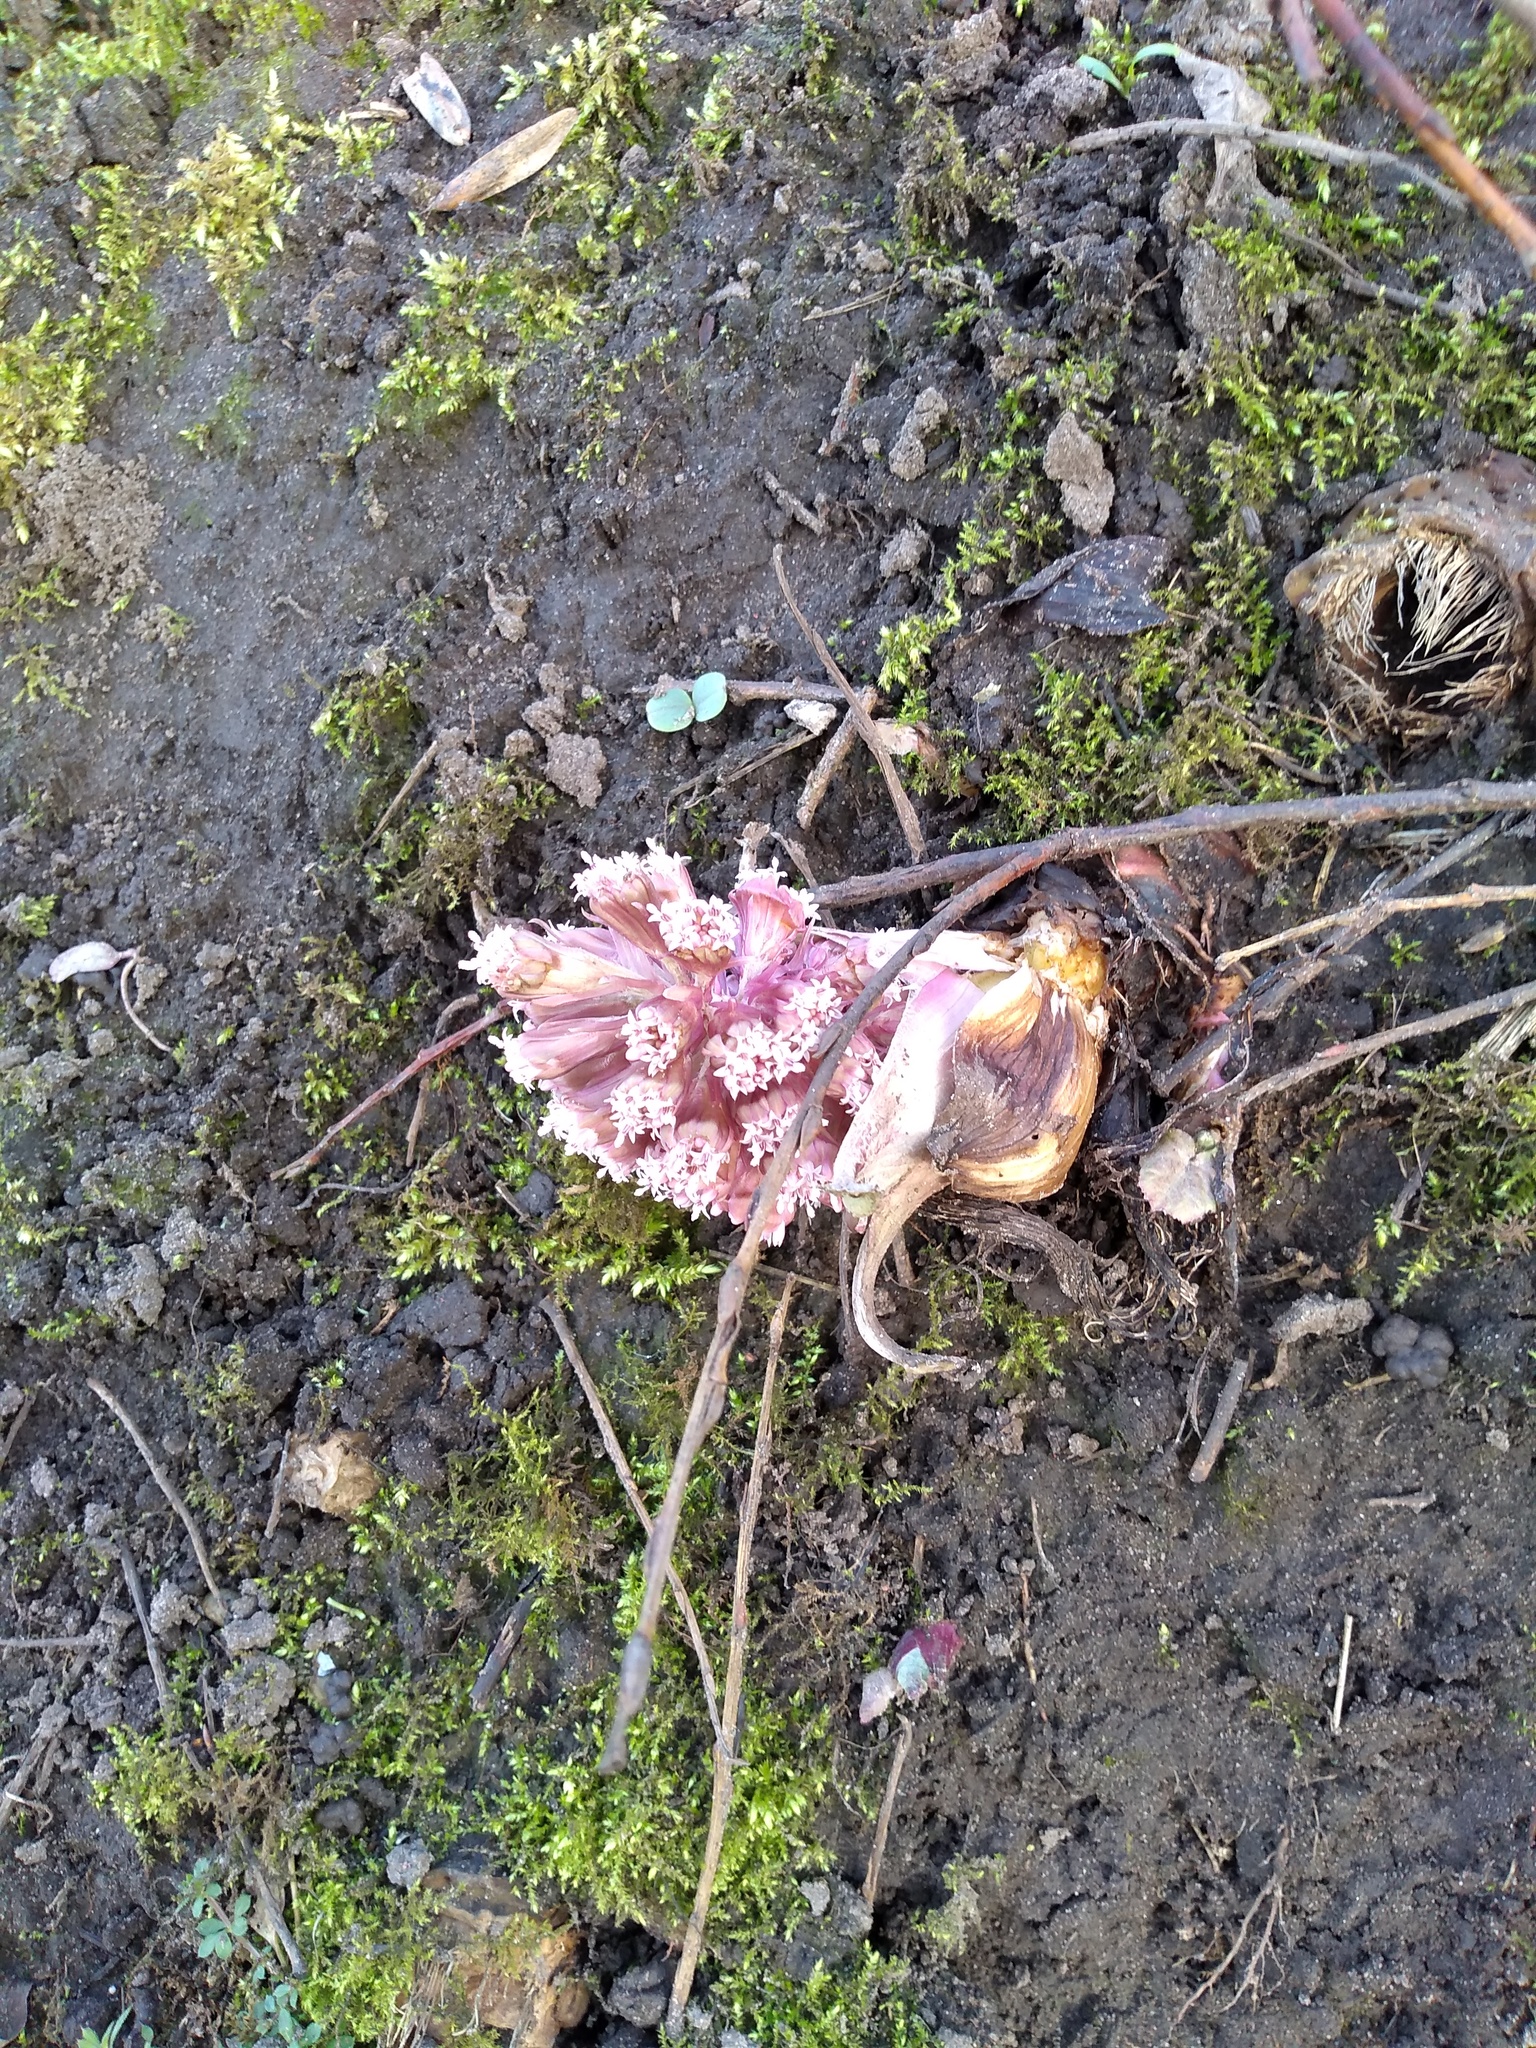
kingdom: Plantae
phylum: Tracheophyta
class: Magnoliopsida
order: Asterales
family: Asteraceae
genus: Petasites
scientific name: Petasites hybridus
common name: Butterbur
